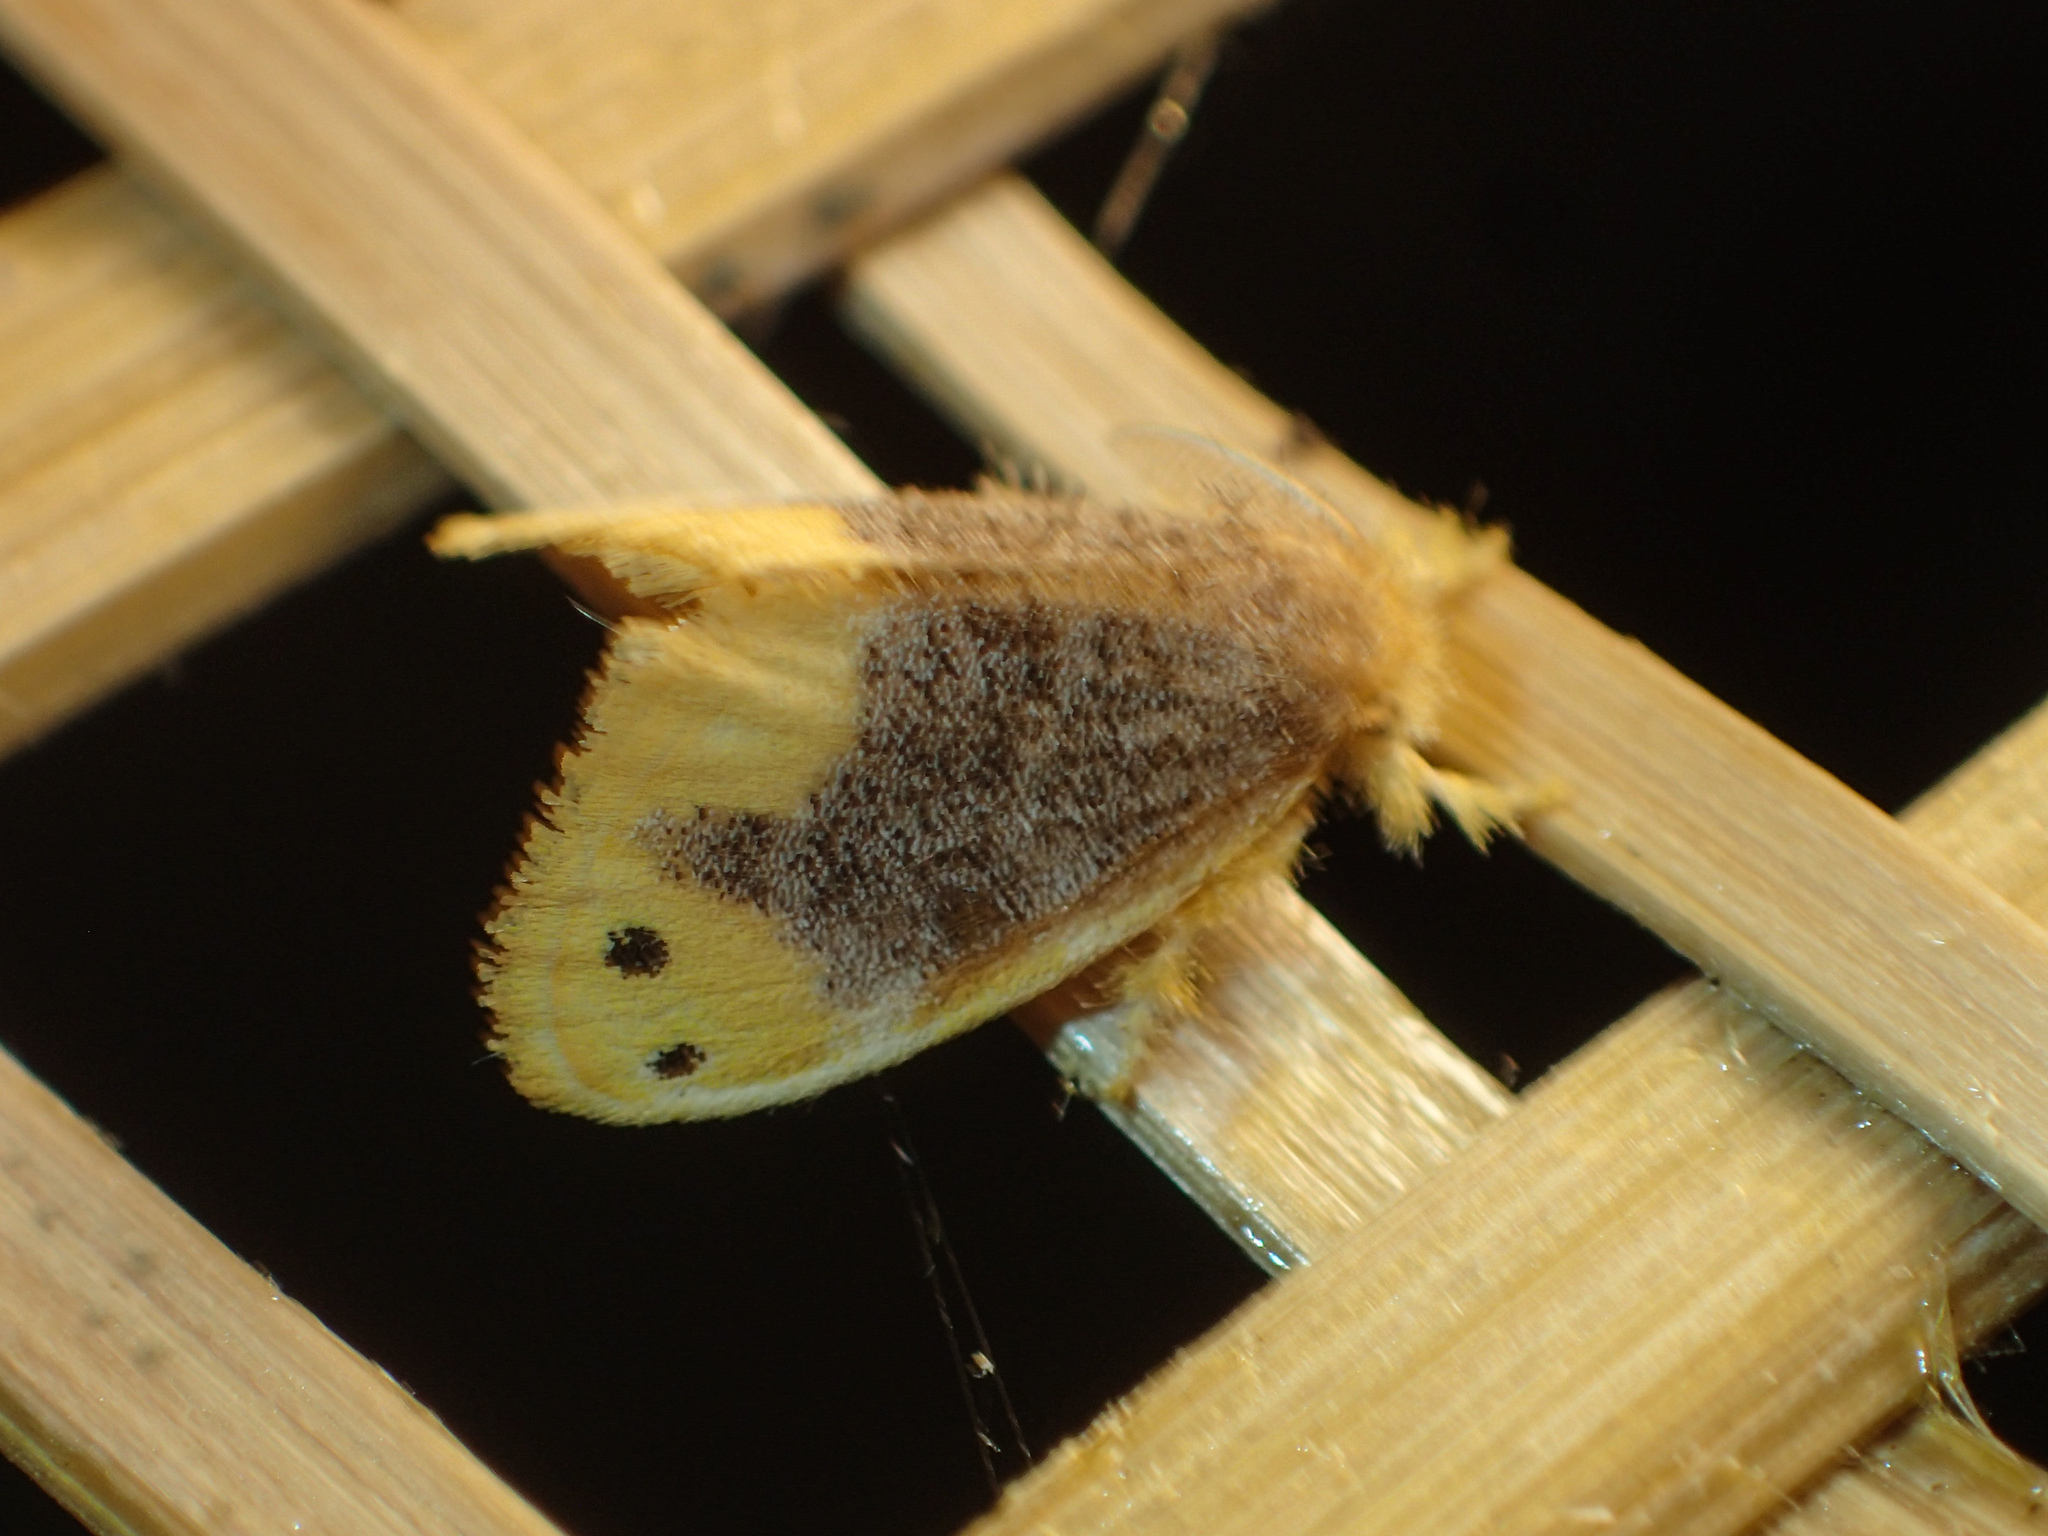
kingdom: Animalia
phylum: Arthropoda
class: Insecta
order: Lepidoptera
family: Erebidae
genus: Arna
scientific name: Arna bipunctapex
